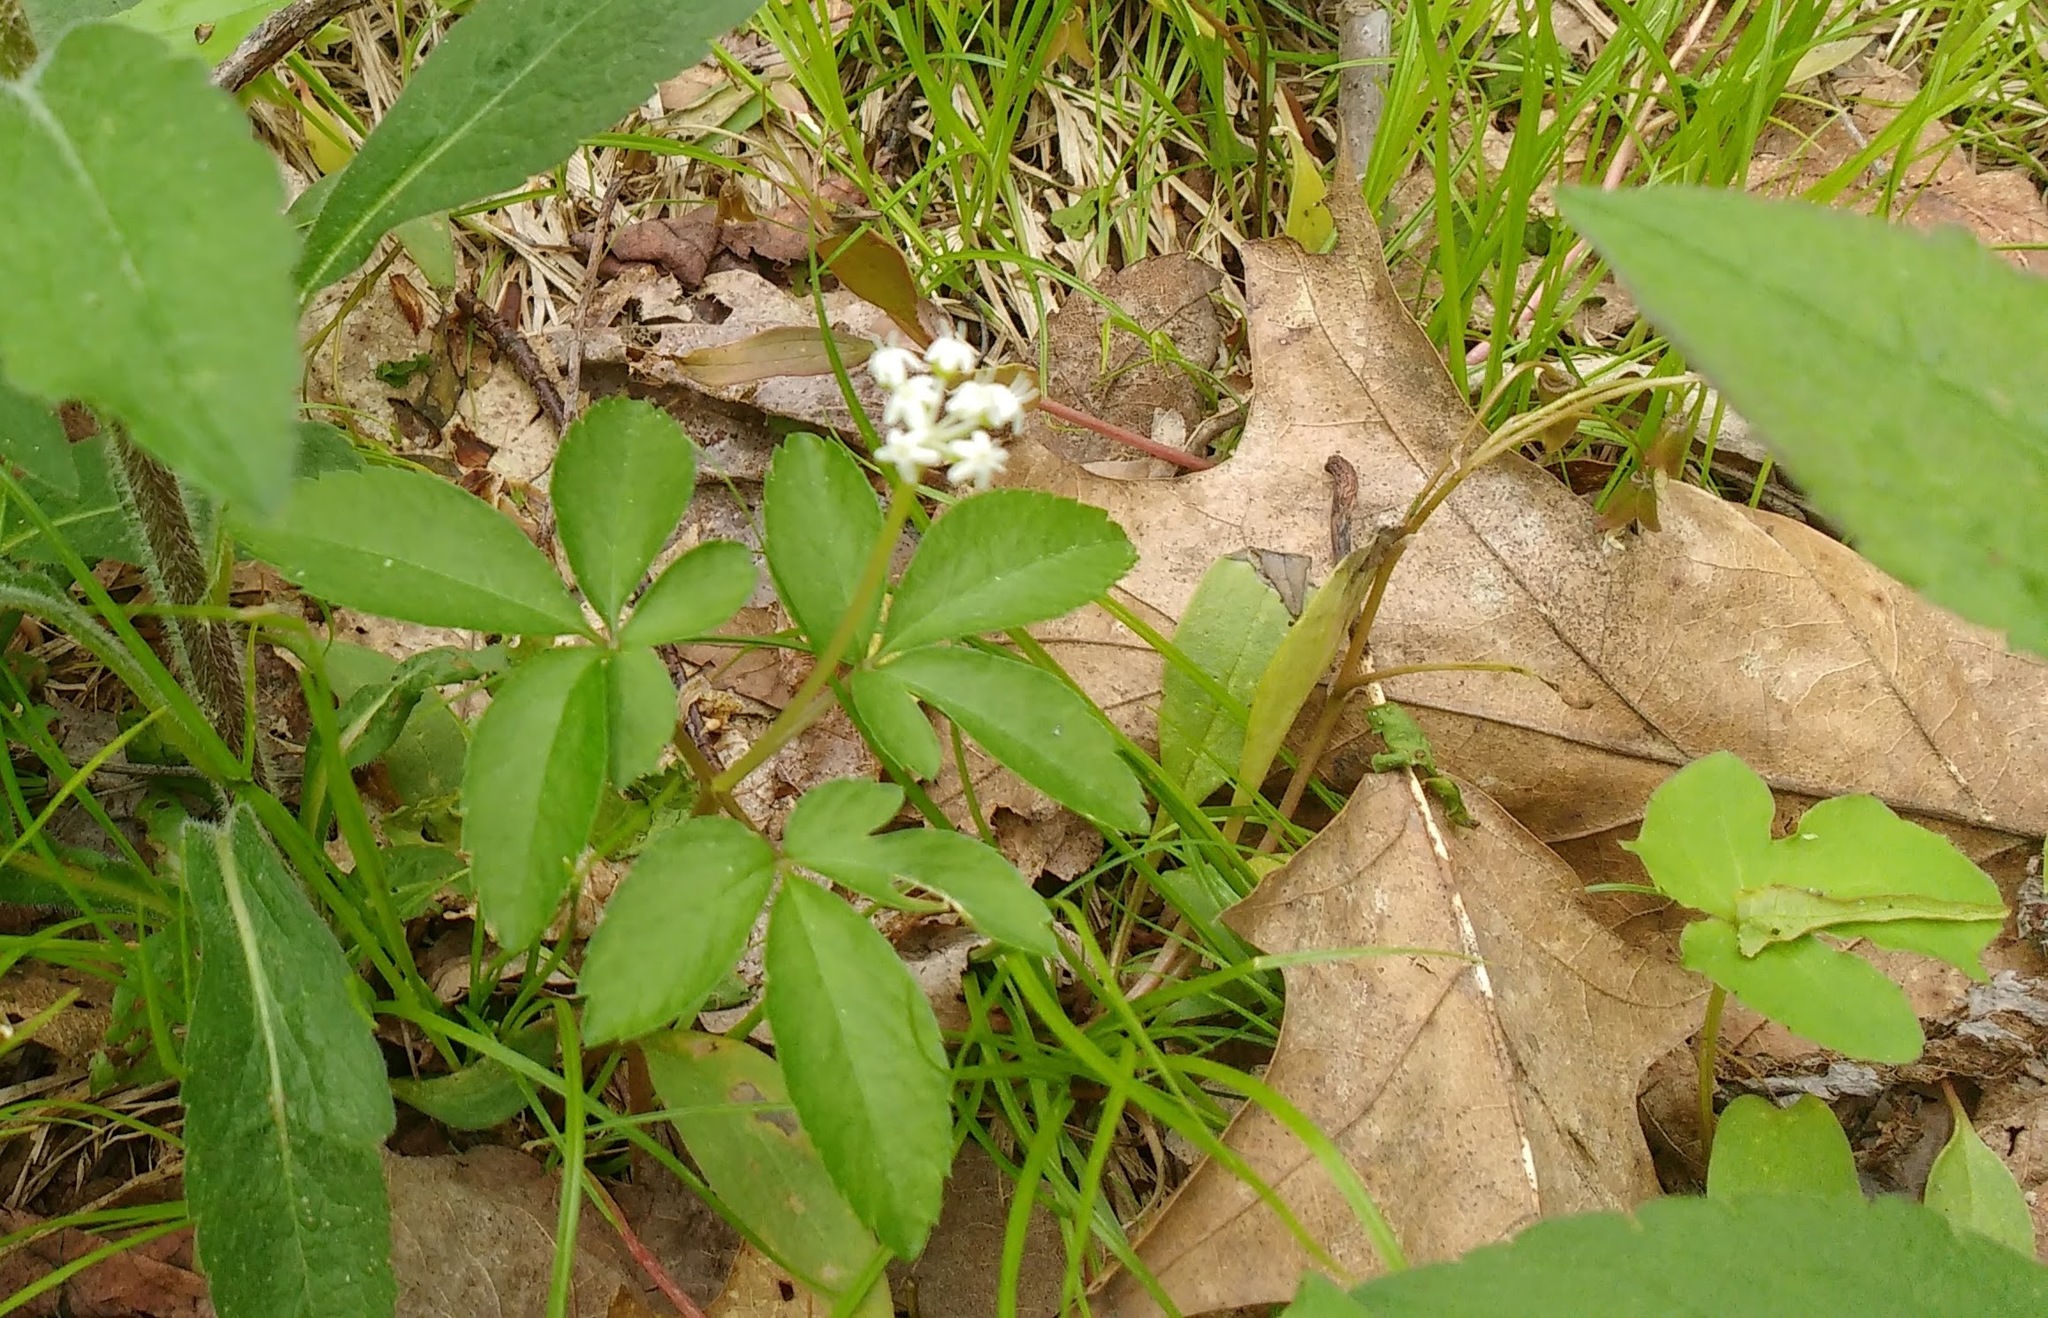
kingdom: Plantae
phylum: Tracheophyta
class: Magnoliopsida
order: Apiales
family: Araliaceae
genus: Panax
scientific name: Panax trifolius
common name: Dwarf ginseng
